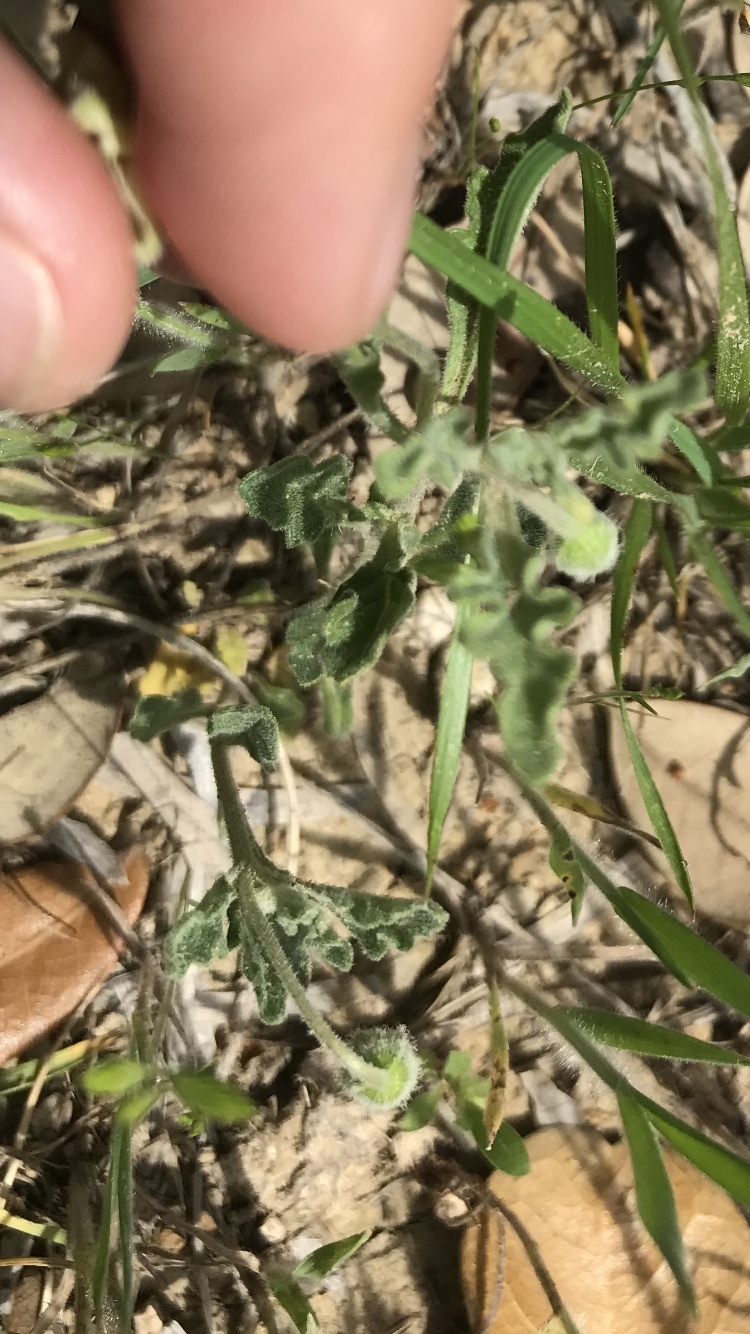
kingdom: Plantae
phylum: Tracheophyta
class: Magnoliopsida
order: Solanales
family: Solanaceae
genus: Chamaesaracha
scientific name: Chamaesaracha coniodes
